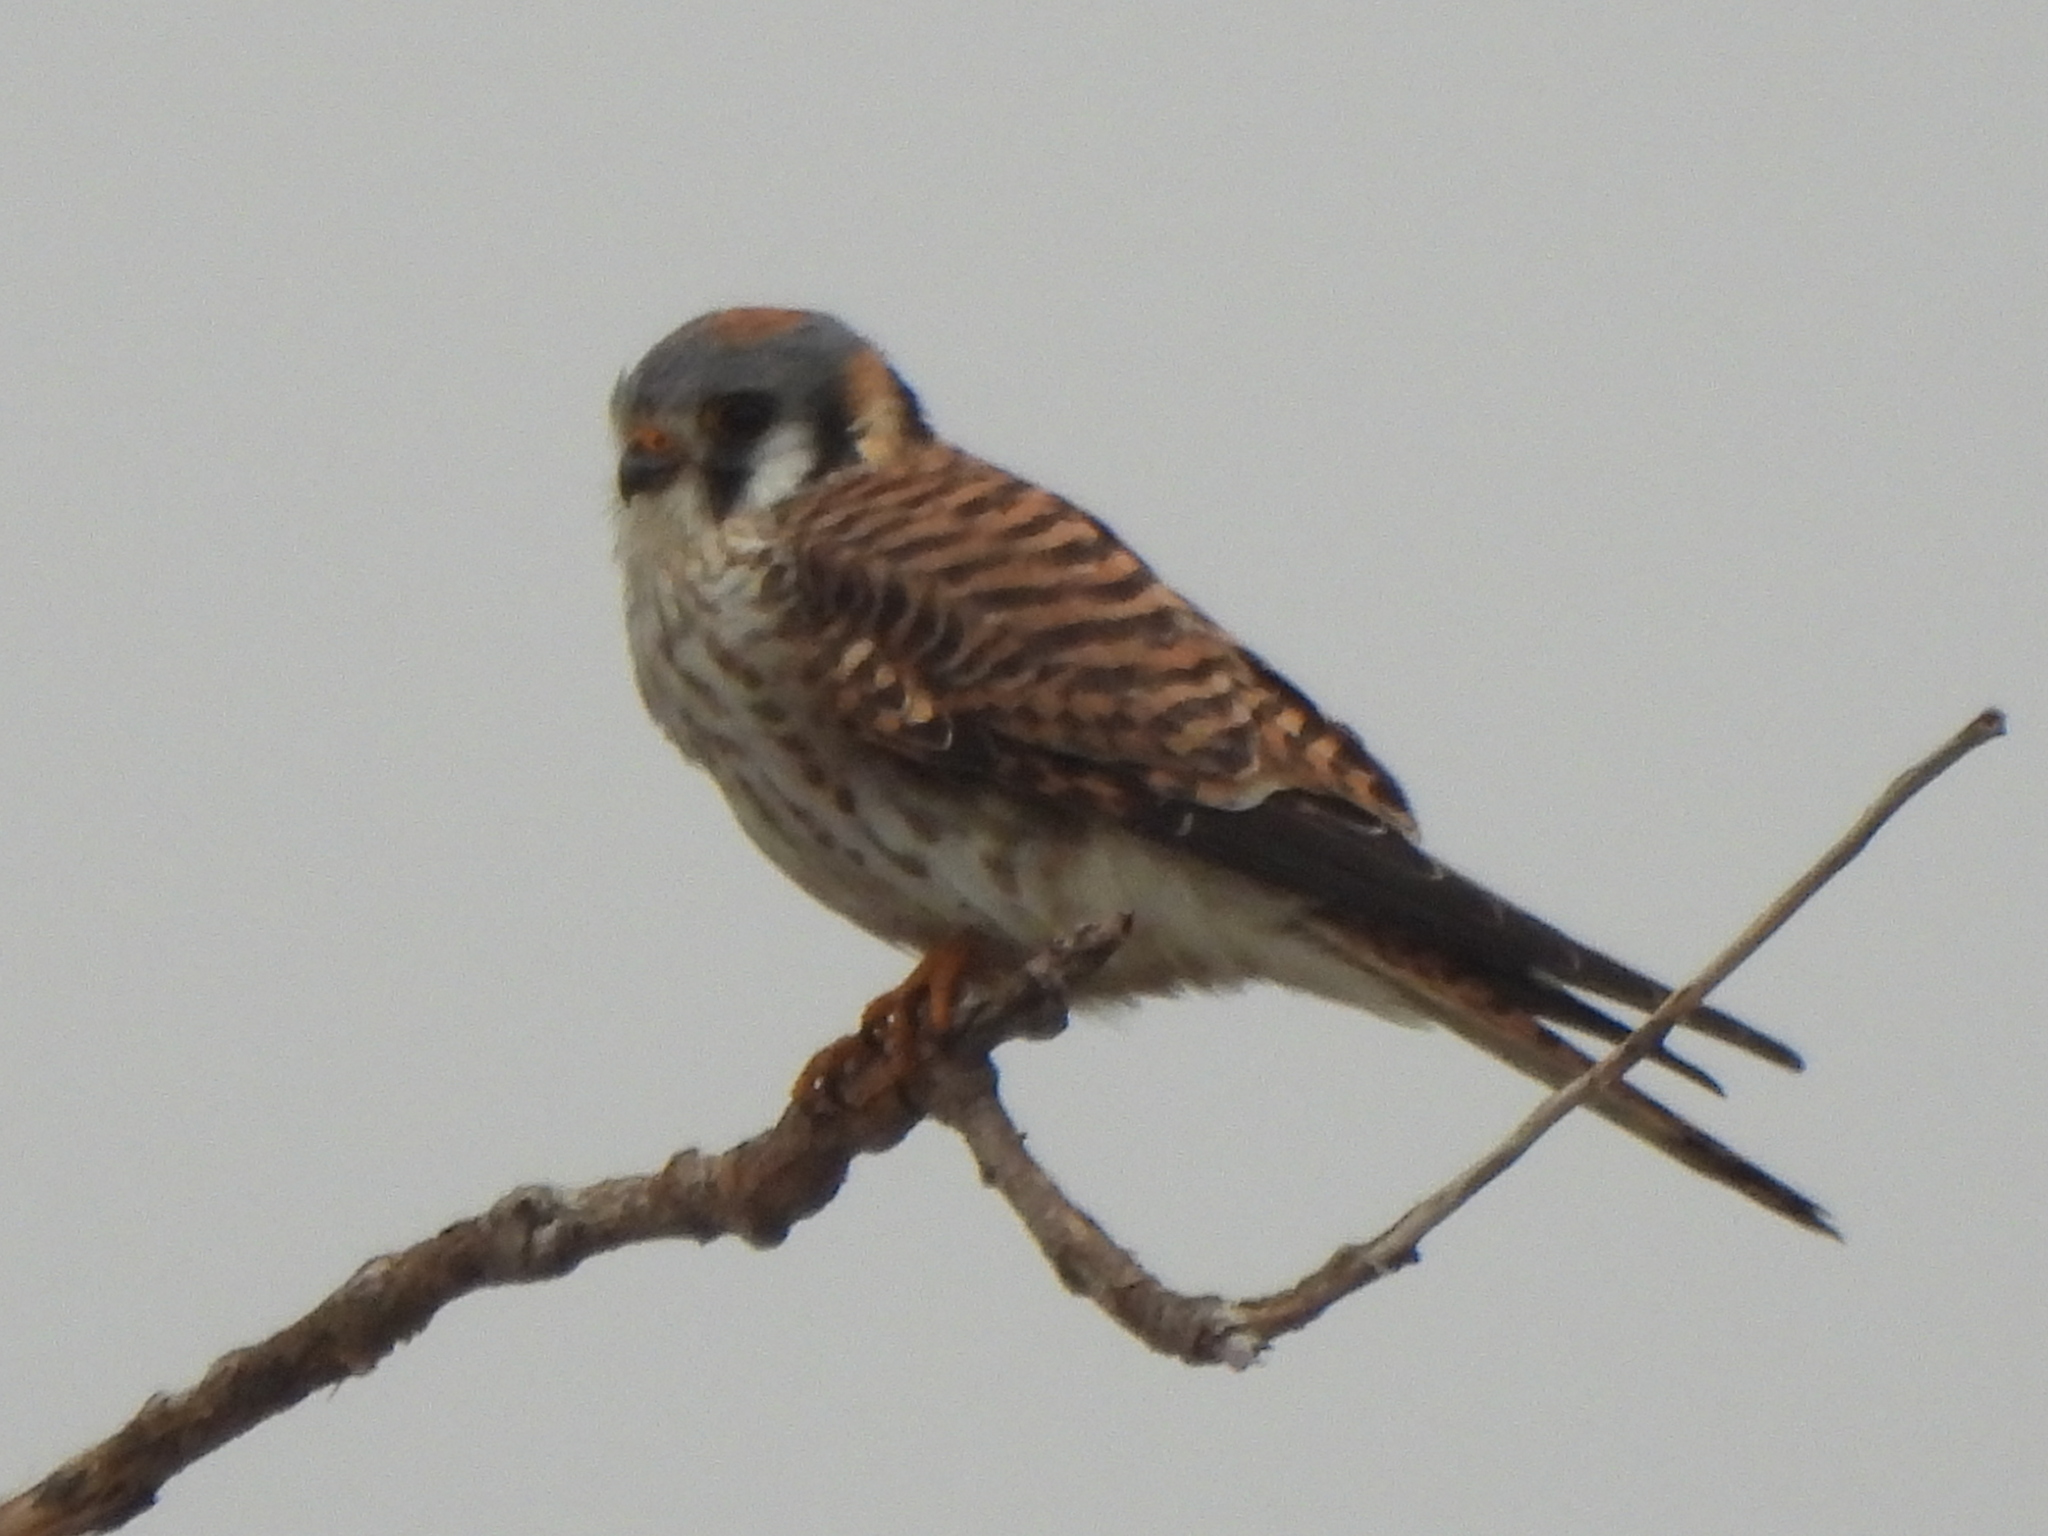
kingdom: Animalia
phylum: Chordata
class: Aves
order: Falconiformes
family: Falconidae
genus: Falco
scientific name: Falco sparverius
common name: American kestrel
